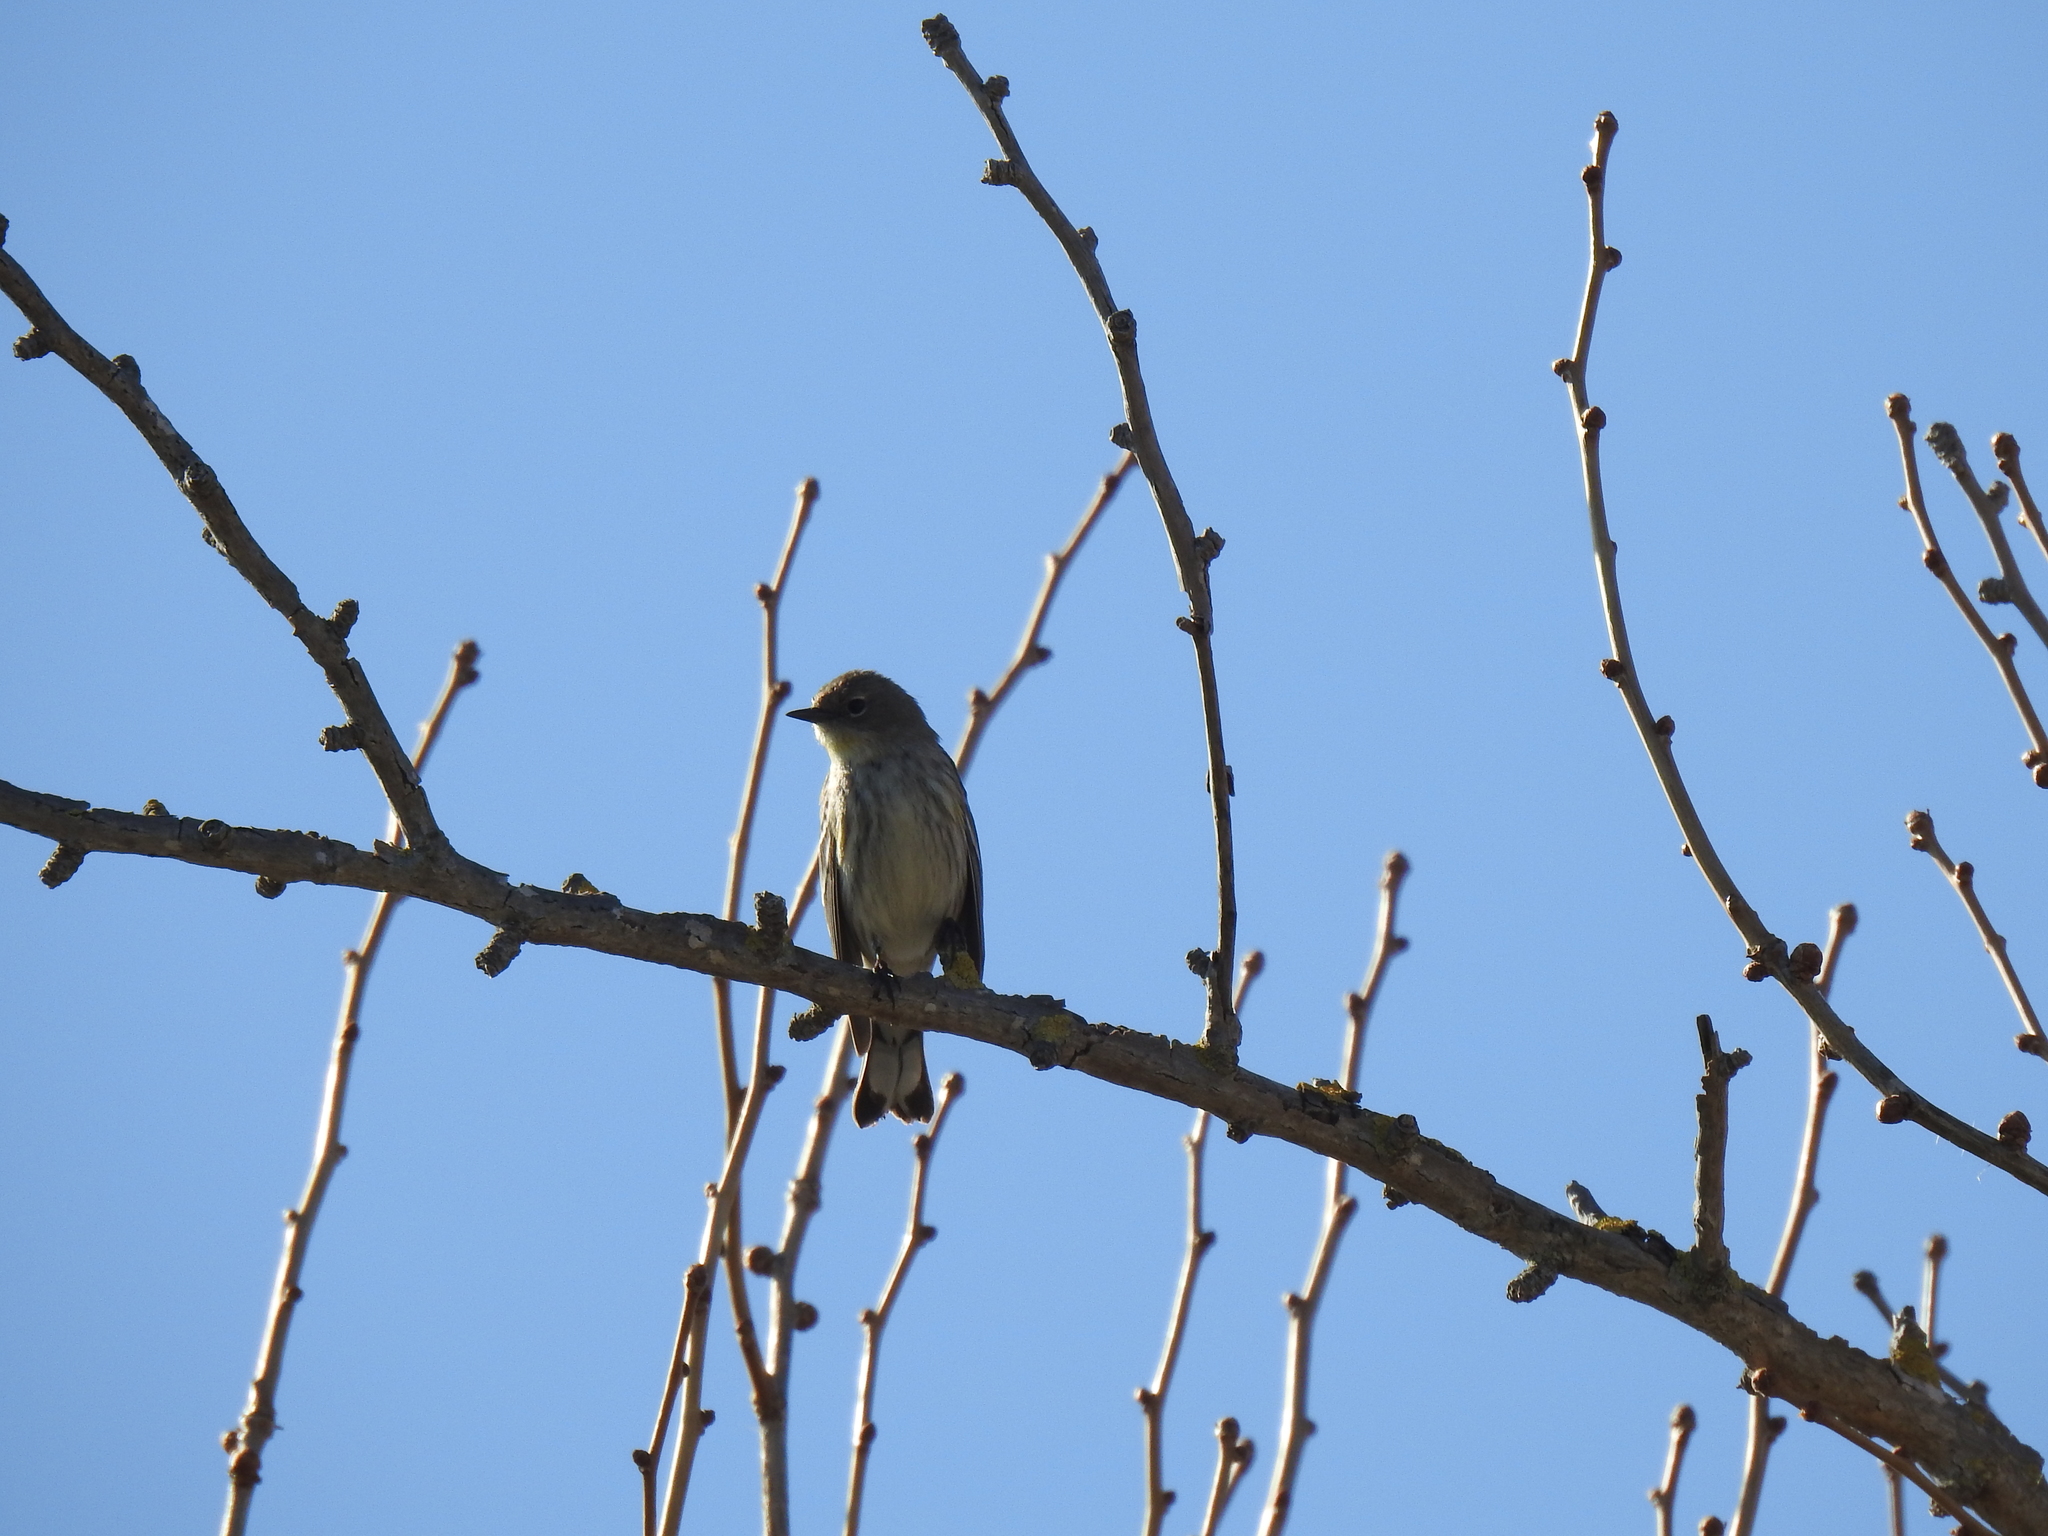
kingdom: Animalia
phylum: Chordata
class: Aves
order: Passeriformes
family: Parulidae
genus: Setophaga
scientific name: Setophaga coronata
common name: Myrtle warbler
